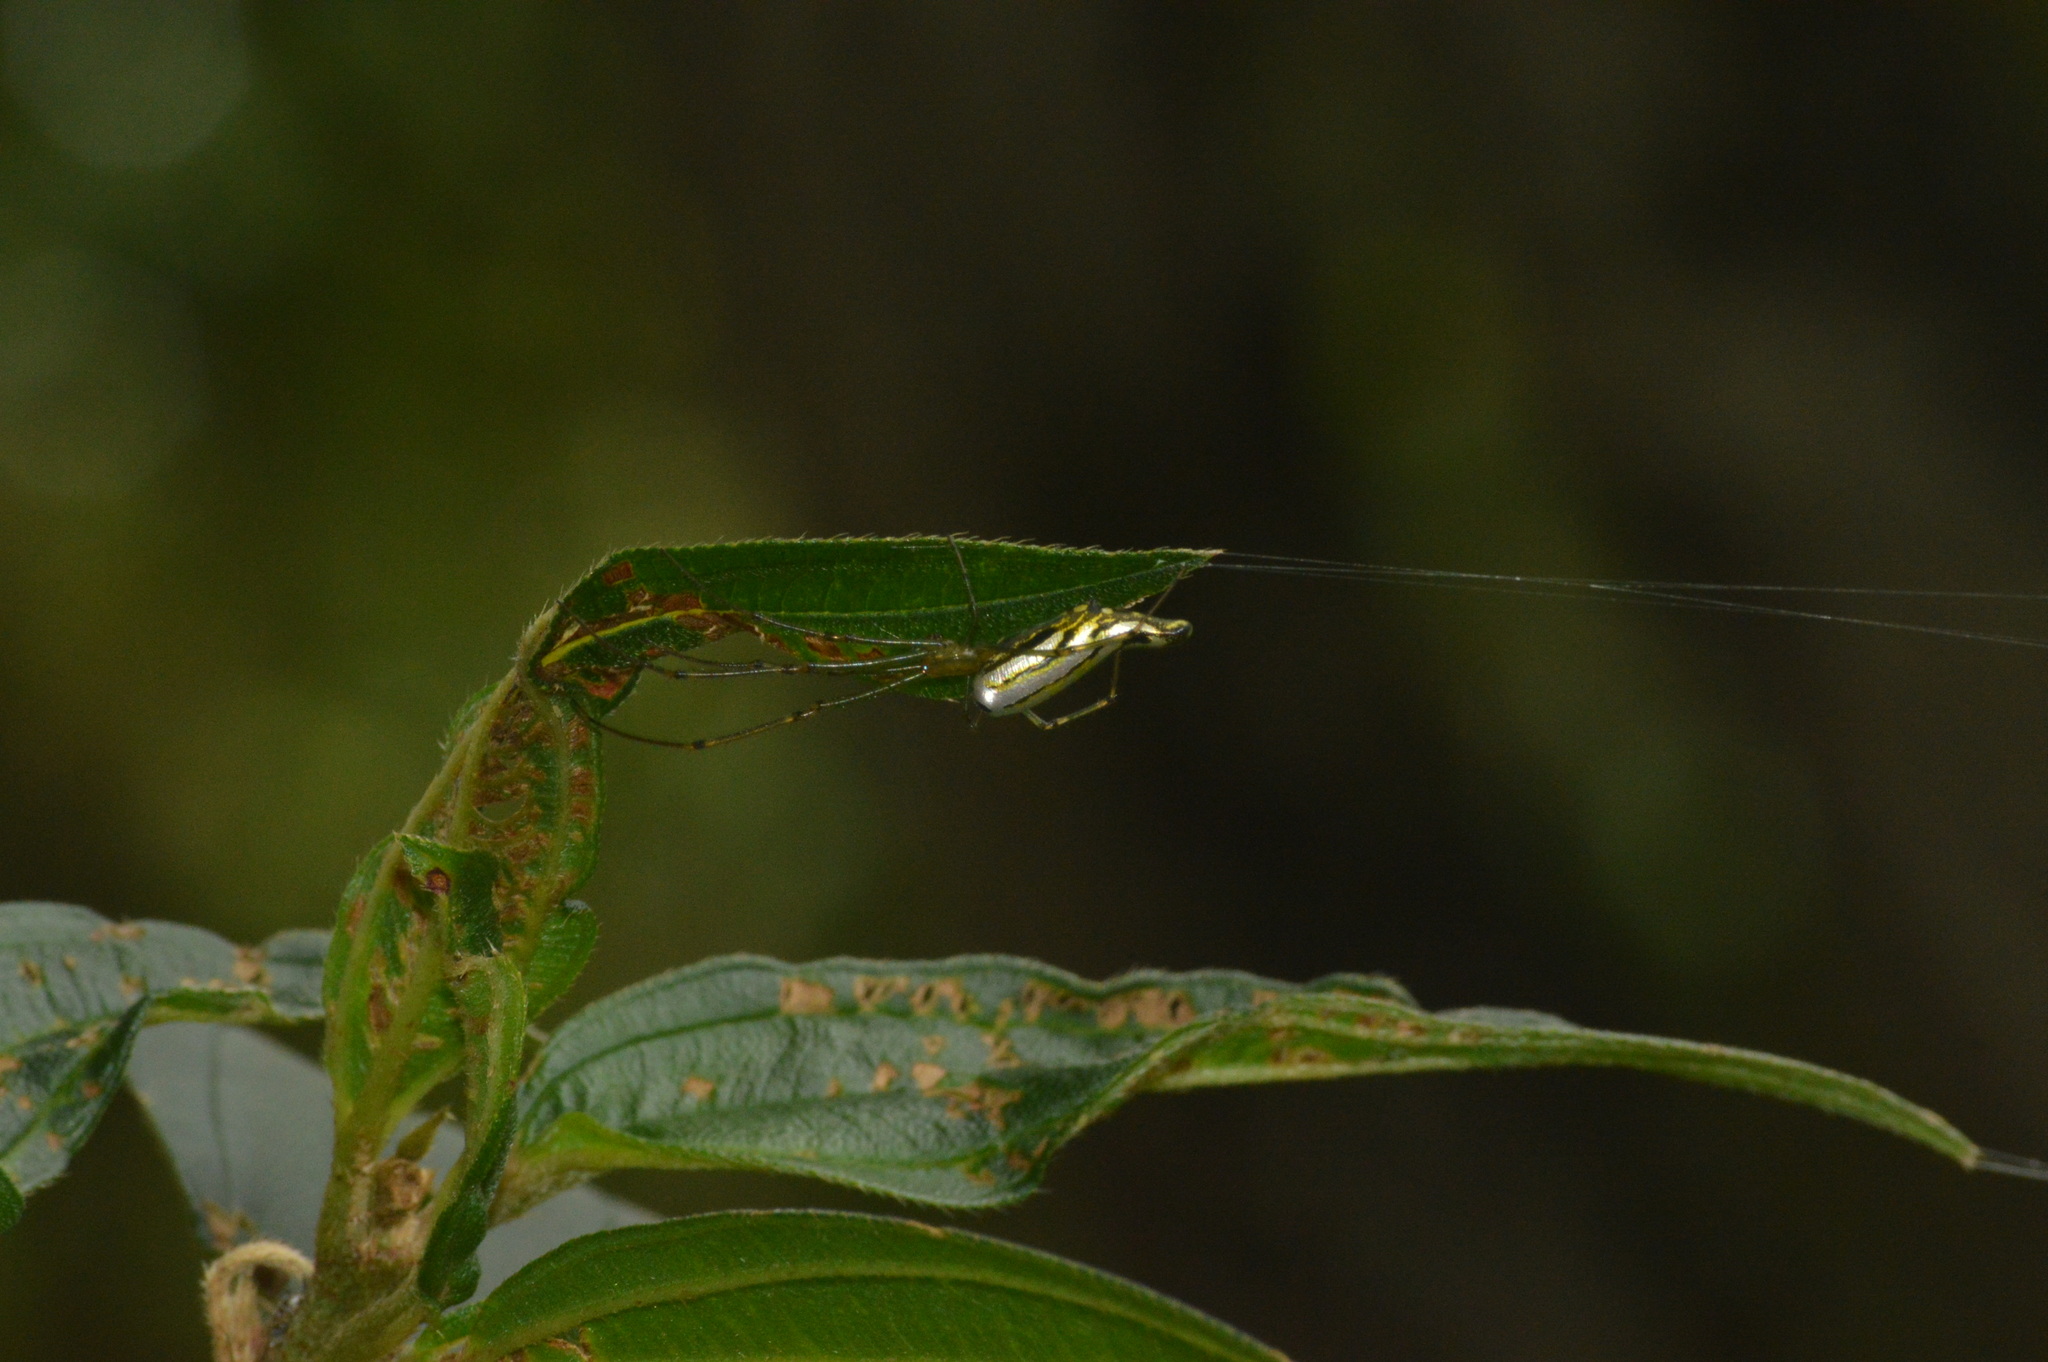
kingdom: Animalia
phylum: Arthropoda
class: Arachnida
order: Araneae
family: Tetragnathidae
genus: Leucauge
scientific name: Leucauge decorata
